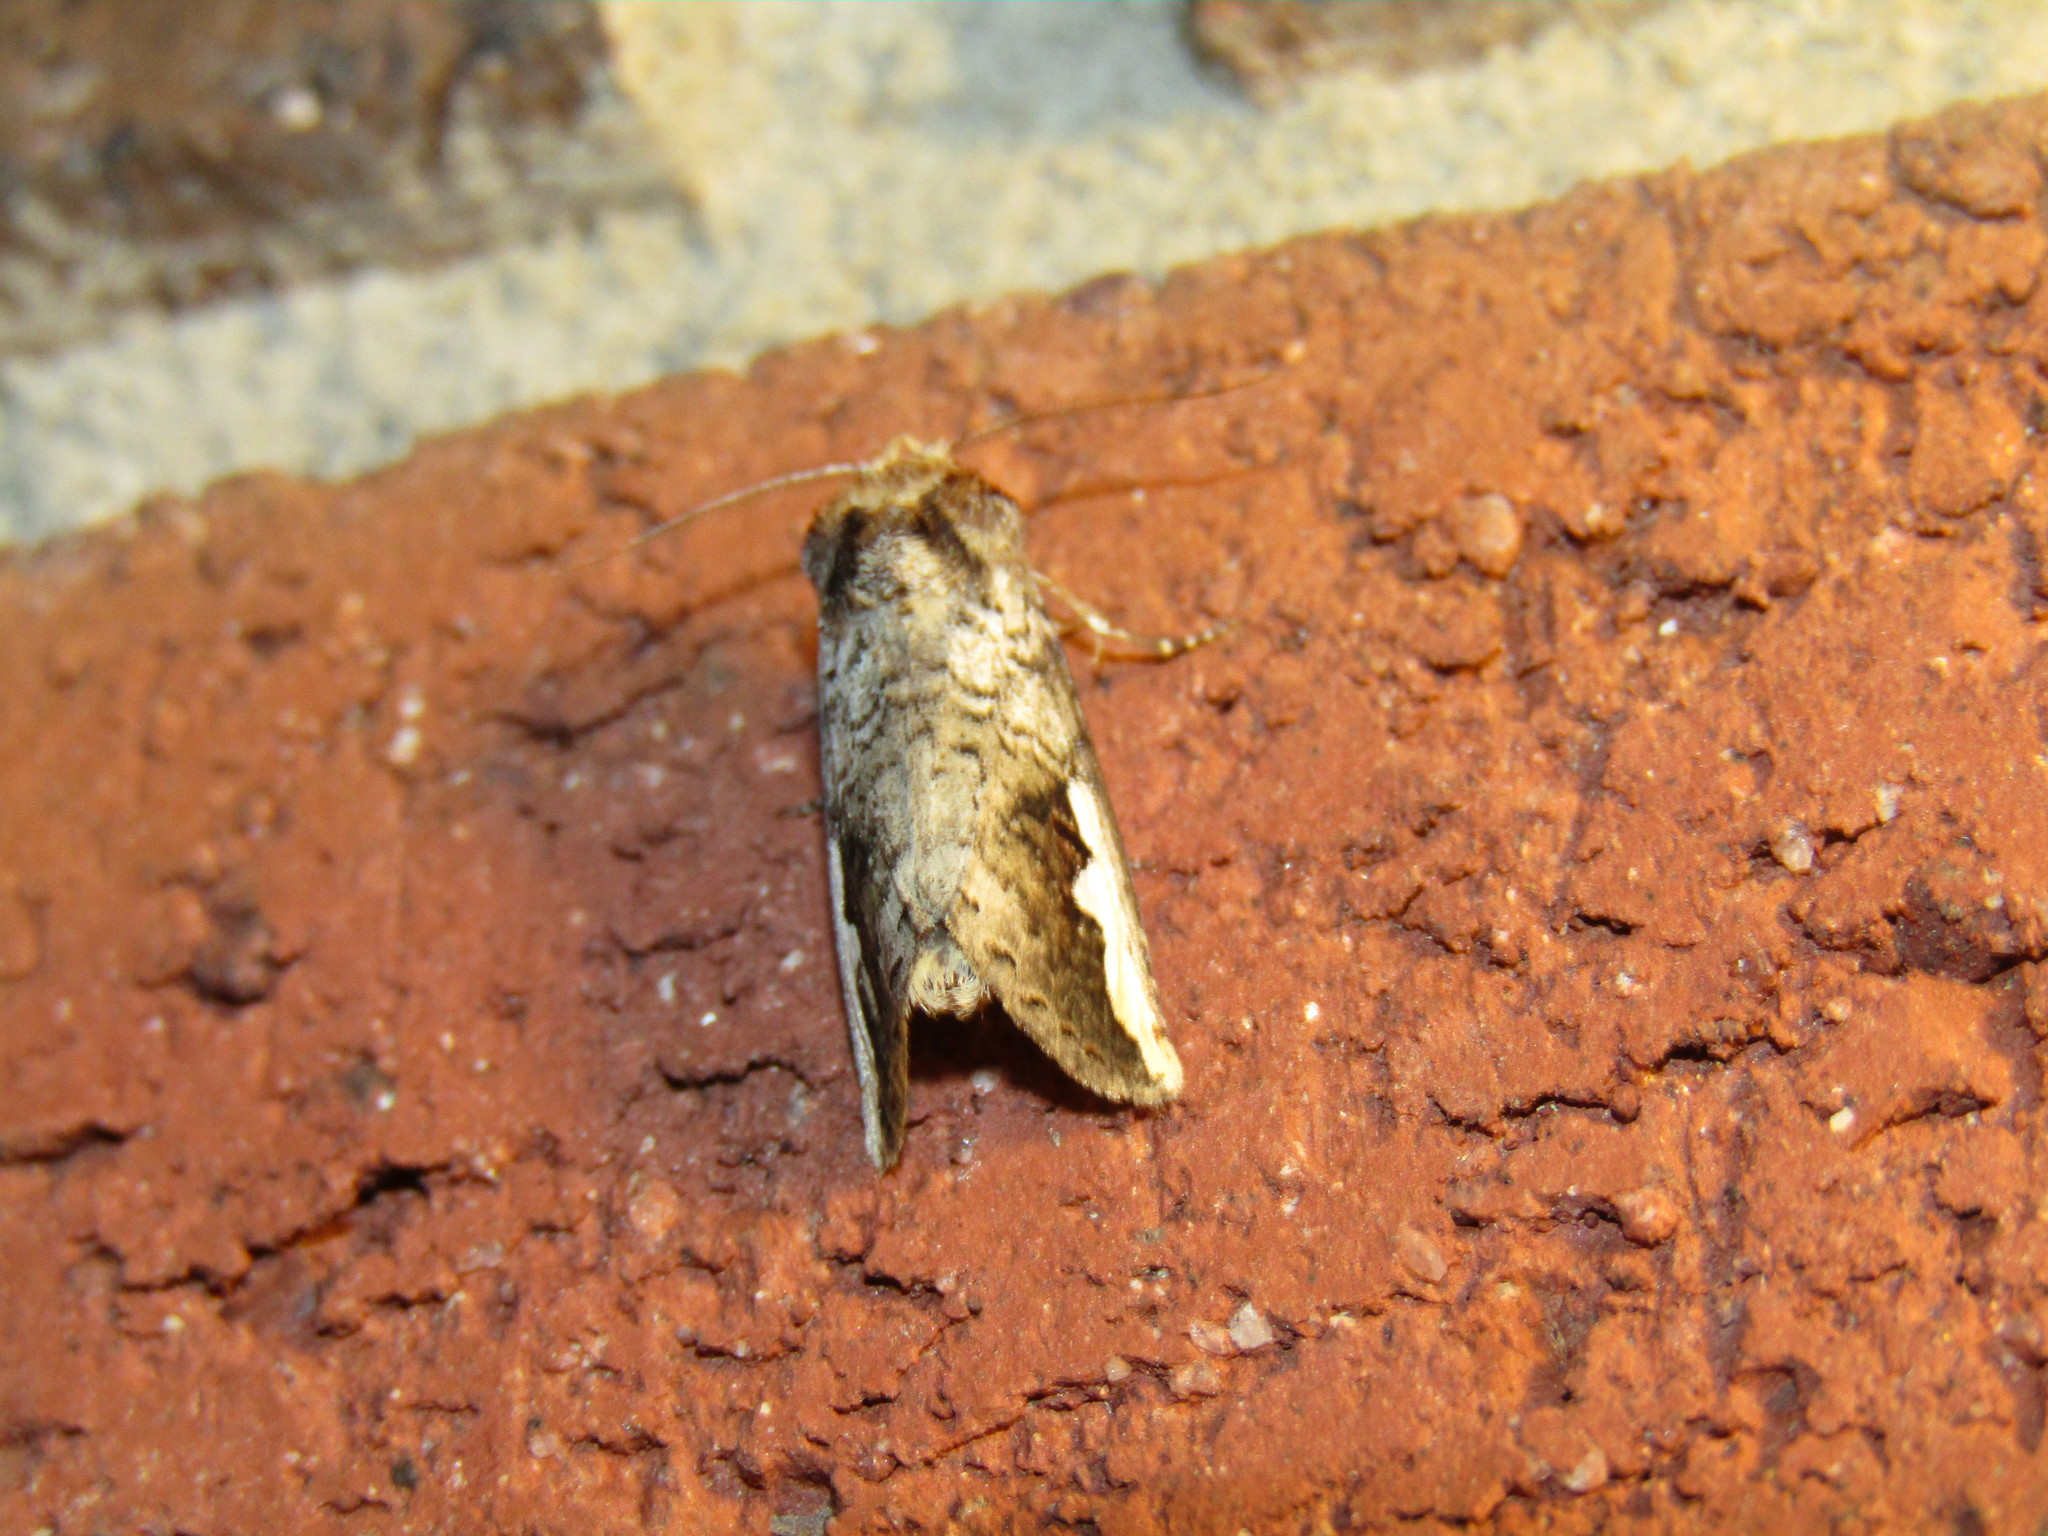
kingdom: Animalia
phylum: Arthropoda
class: Insecta
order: Lepidoptera
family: Notodontidae
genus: Symmerista
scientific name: Symmerista
